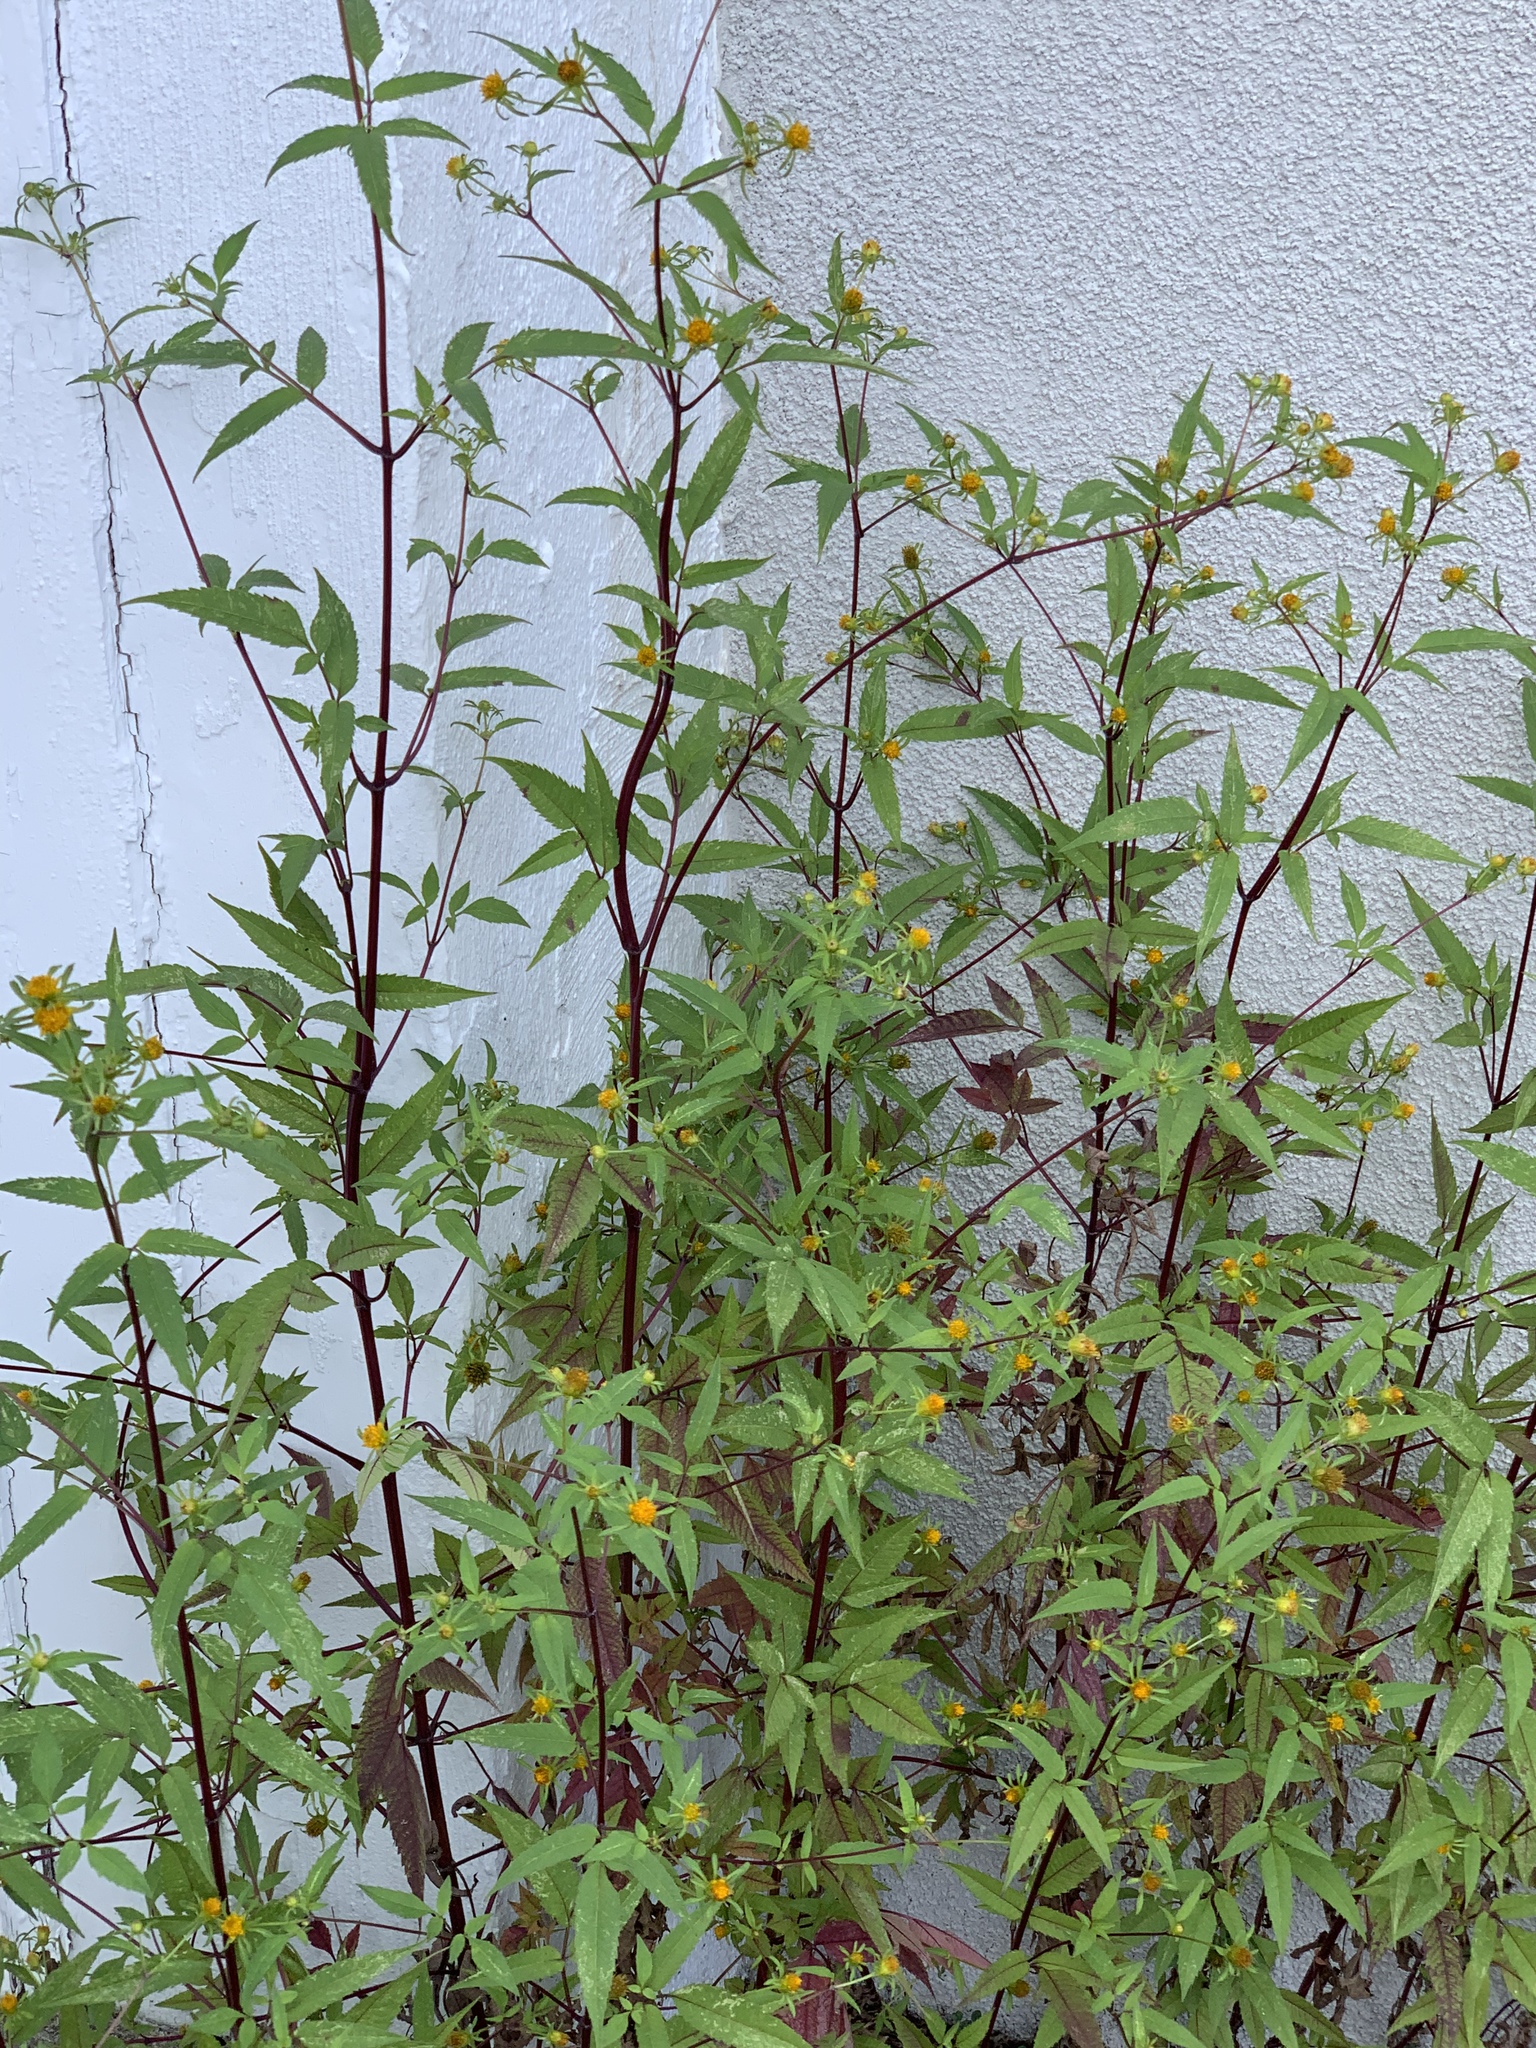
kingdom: Plantae
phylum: Tracheophyta
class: Magnoliopsida
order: Asterales
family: Asteraceae
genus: Bidens
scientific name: Bidens frondosa
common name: Beggarticks
